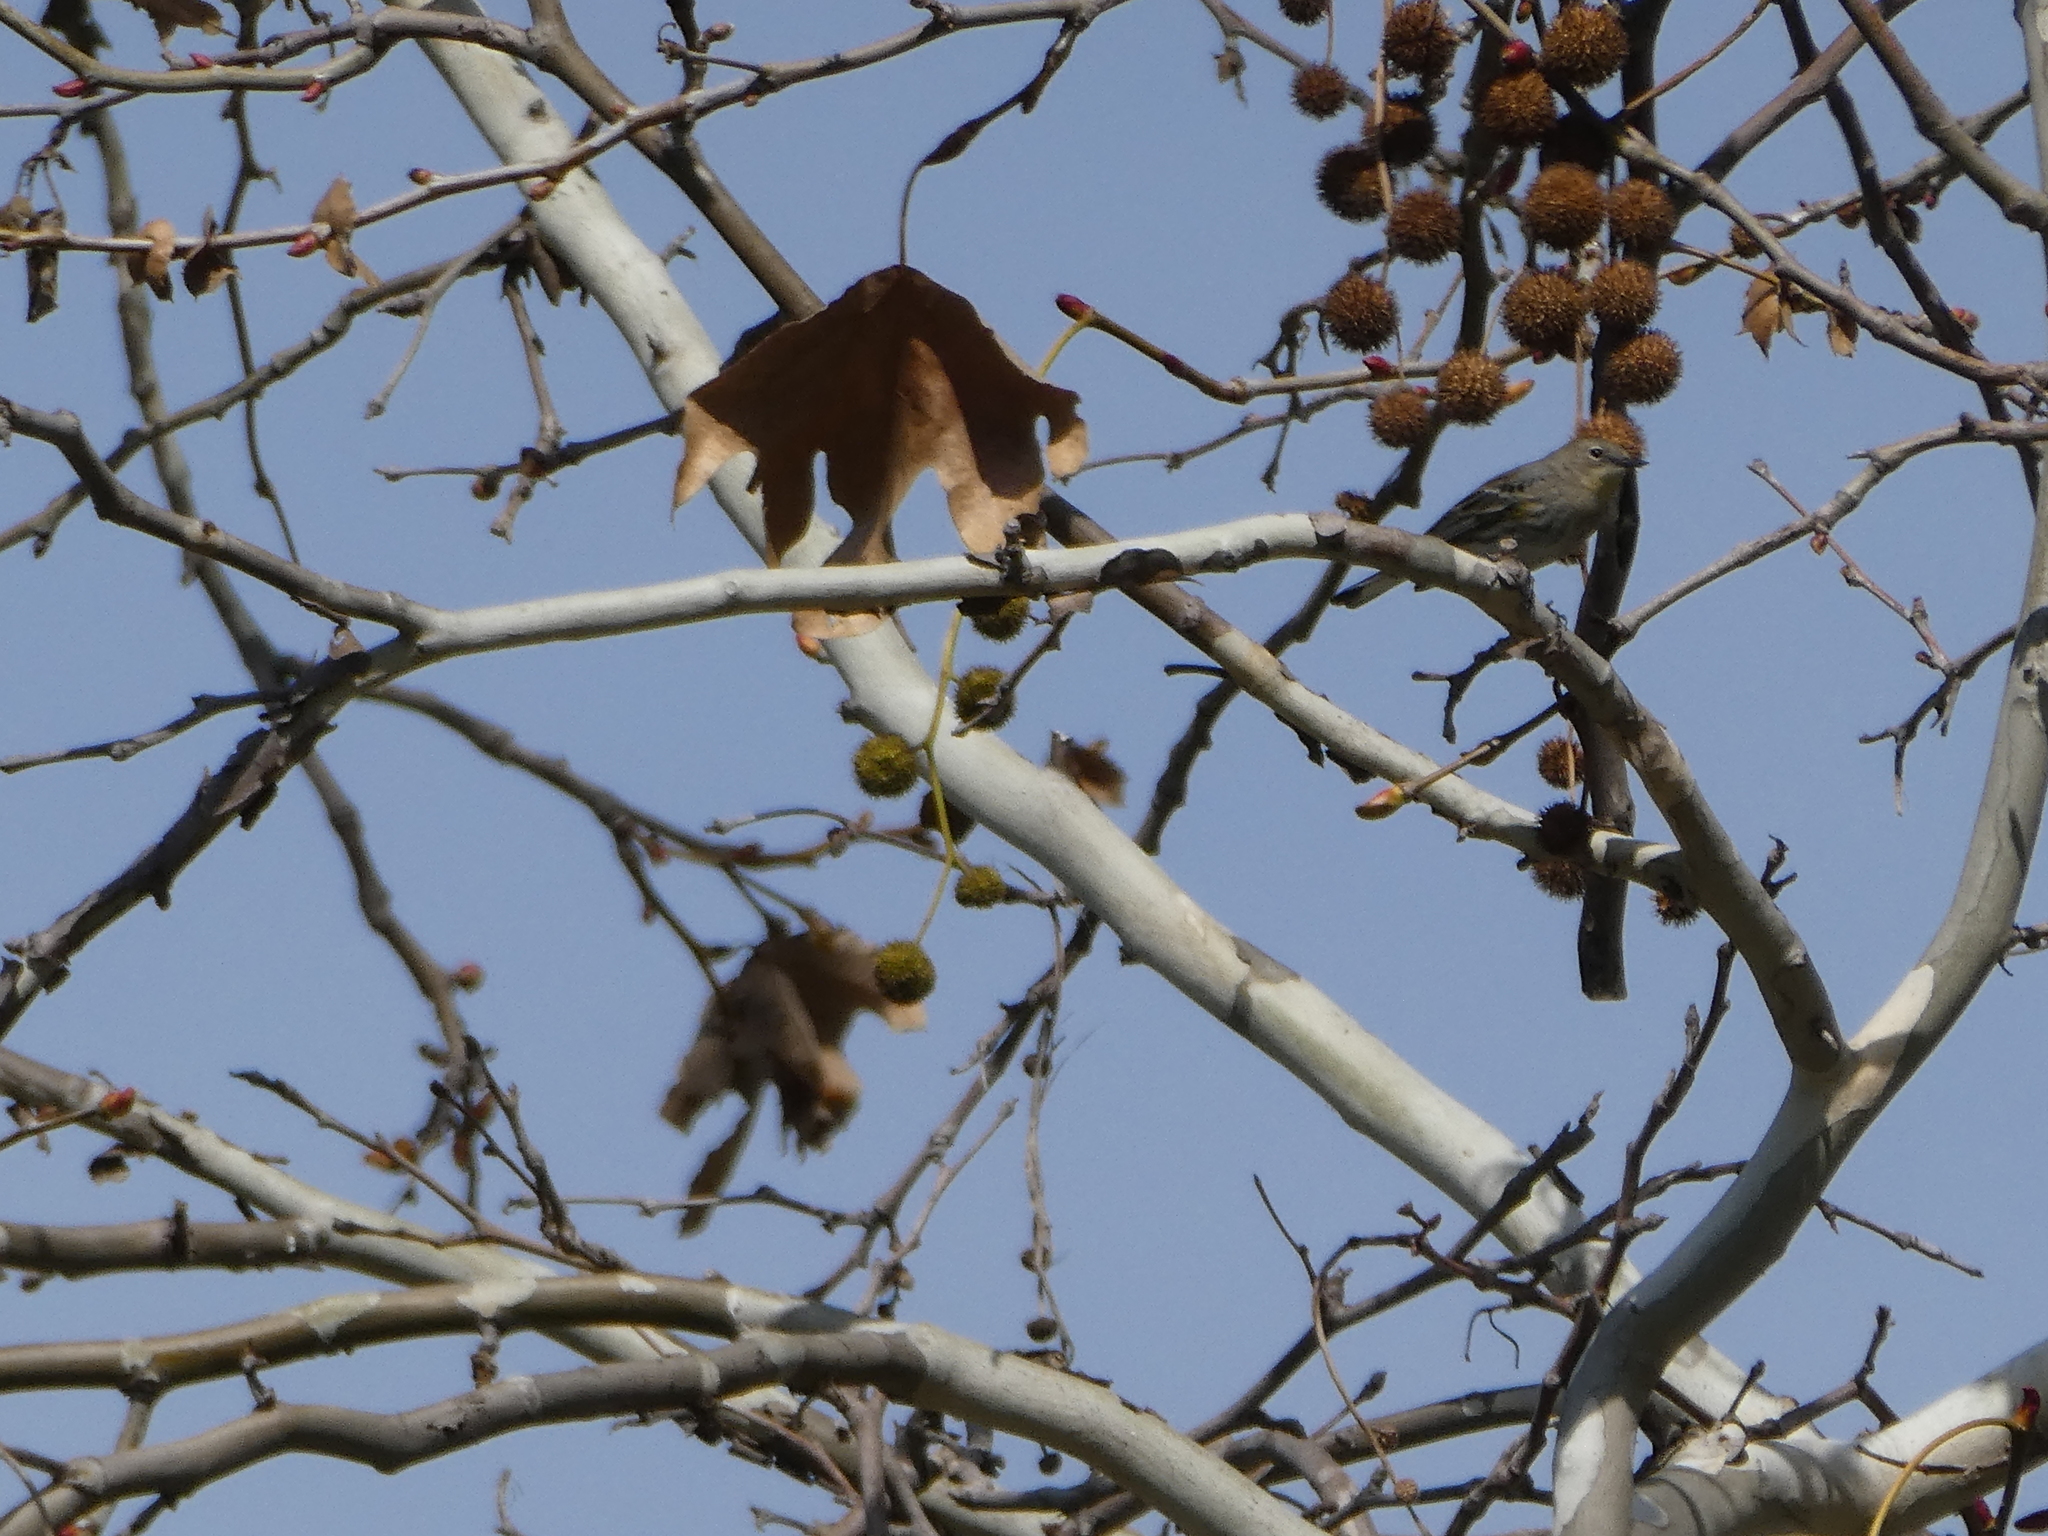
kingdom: Animalia
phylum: Chordata
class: Aves
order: Passeriformes
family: Parulidae
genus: Setophaga
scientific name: Setophaga coronata
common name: Myrtle warbler
